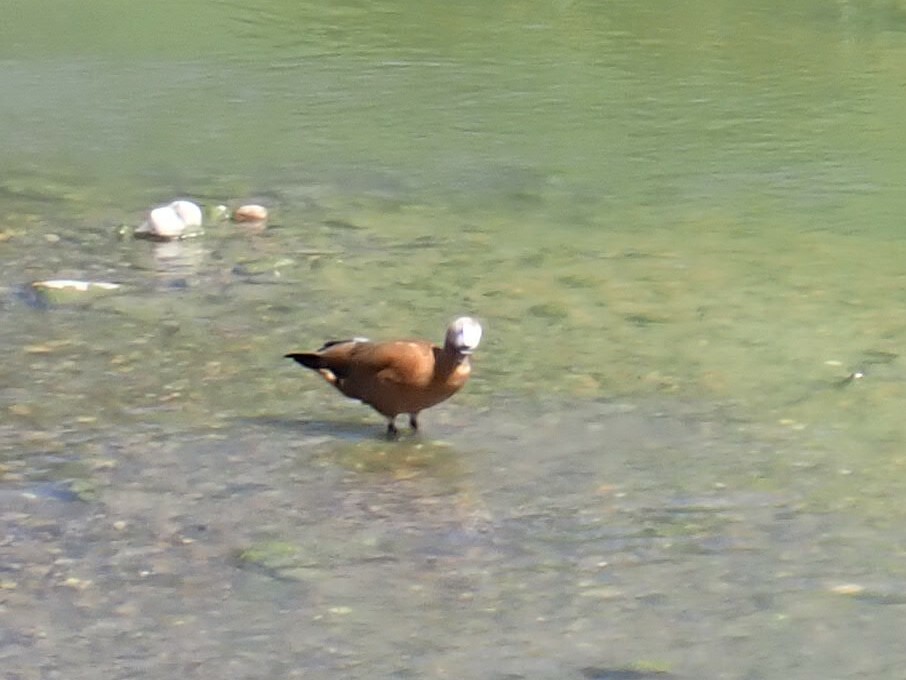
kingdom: Animalia
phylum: Chordata
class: Aves
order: Anseriformes
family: Anatidae
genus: Tadorna
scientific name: Tadorna ferruginea
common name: Ruddy shelduck
